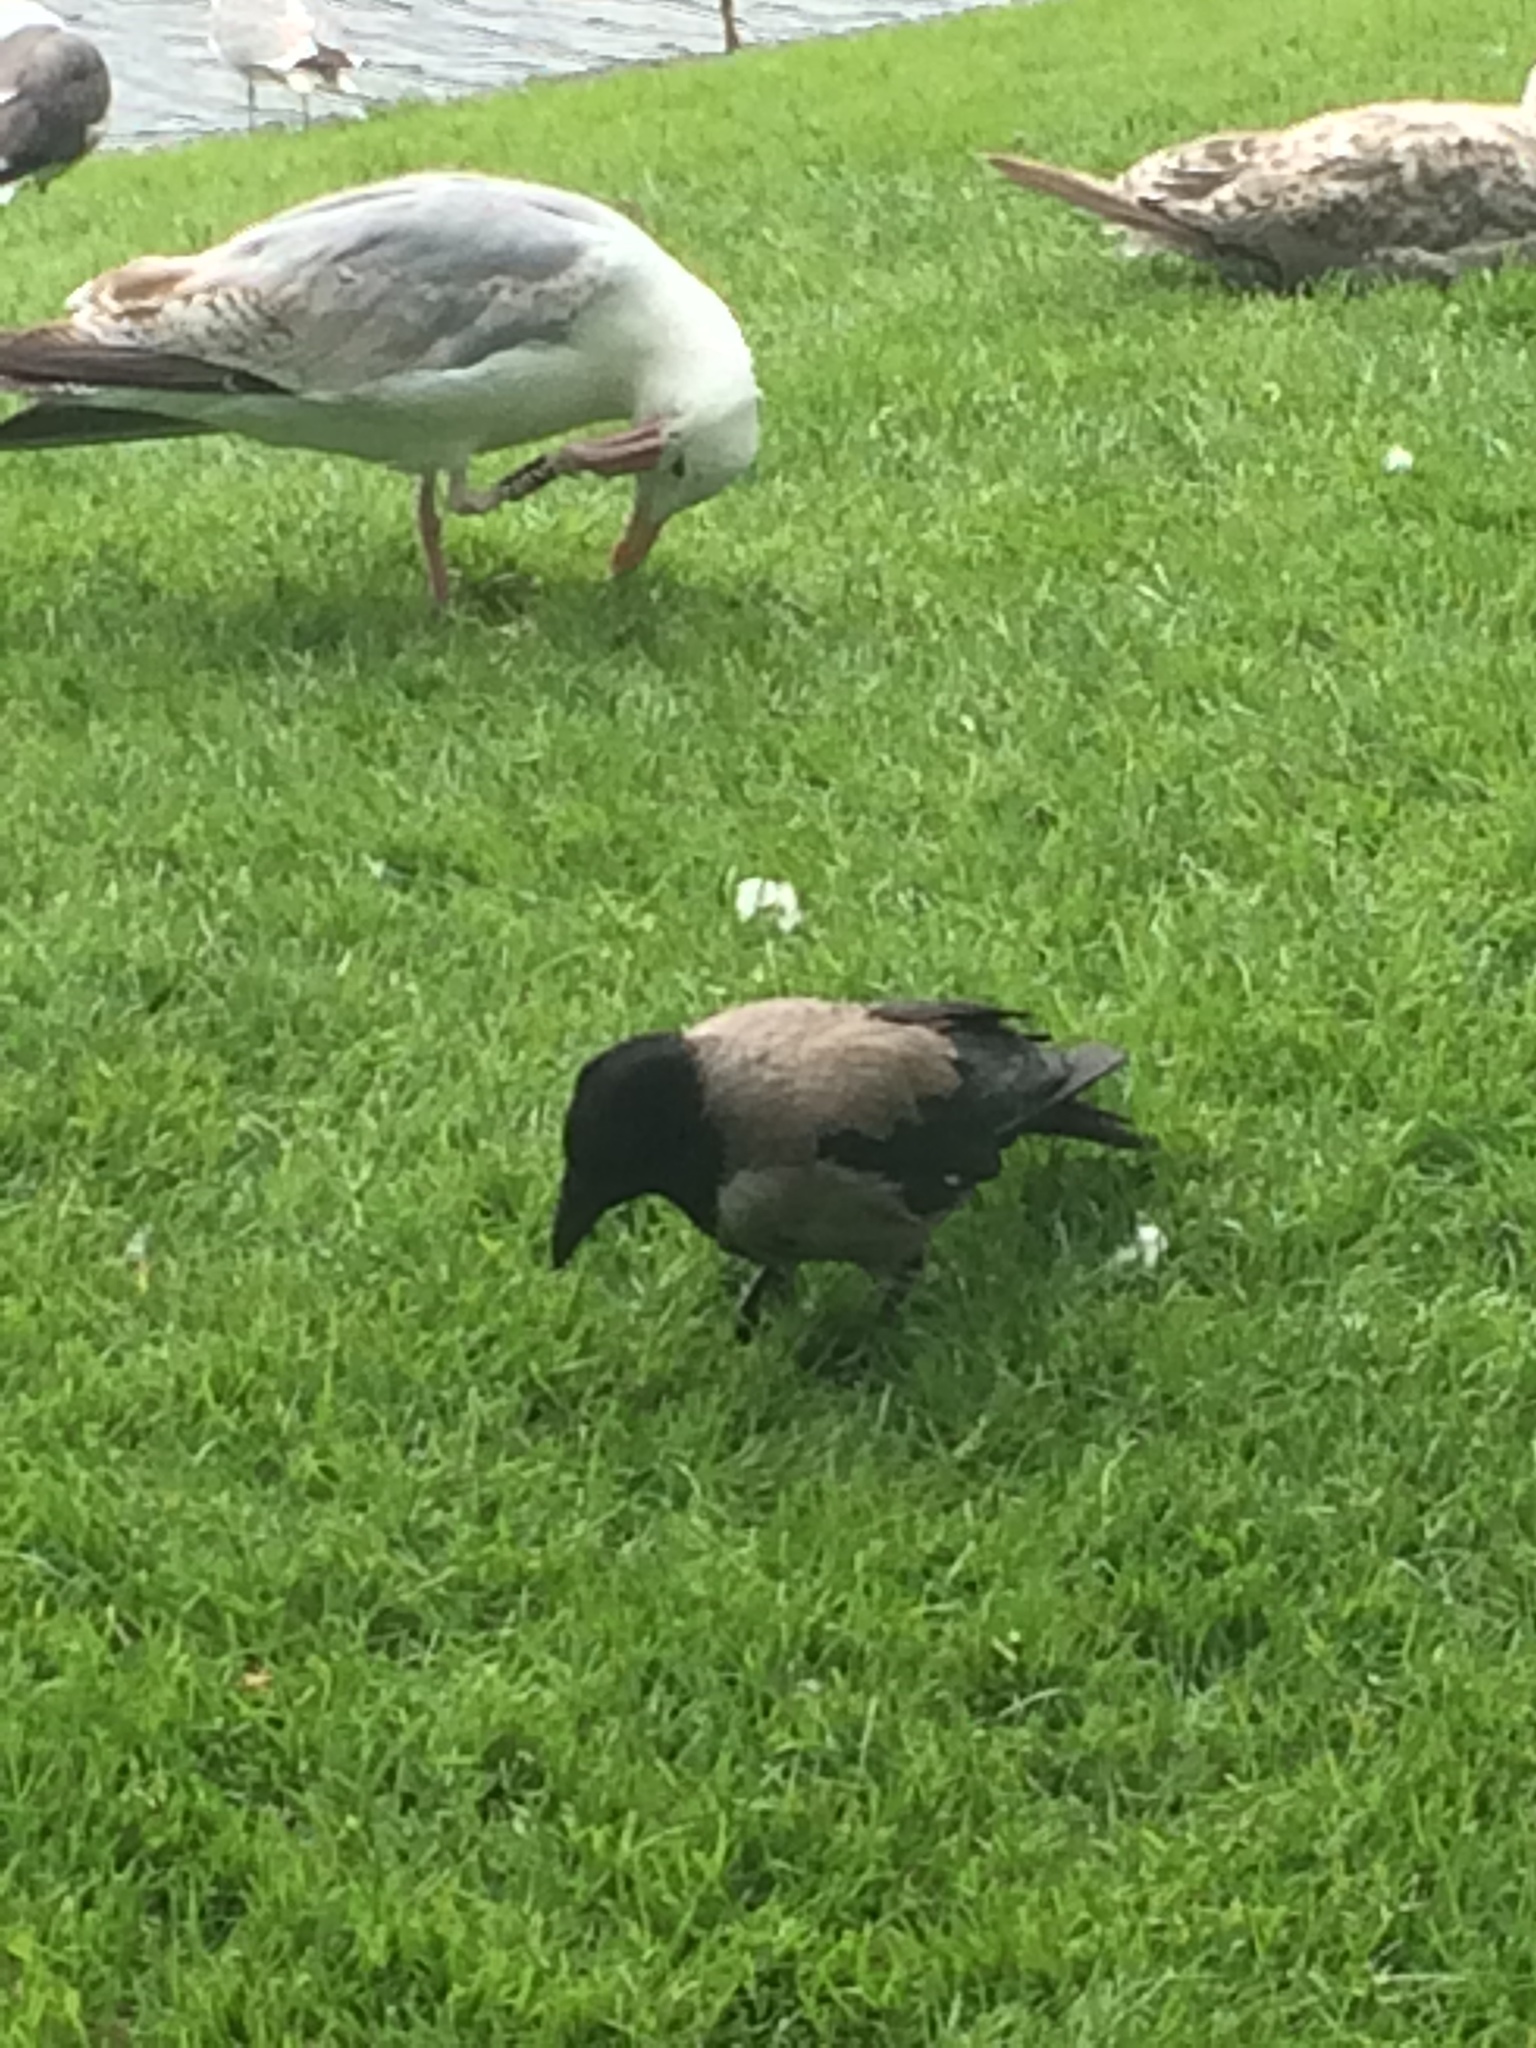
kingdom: Animalia
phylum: Chordata
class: Aves
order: Passeriformes
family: Corvidae
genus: Corvus
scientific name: Corvus cornix
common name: Hooded crow
